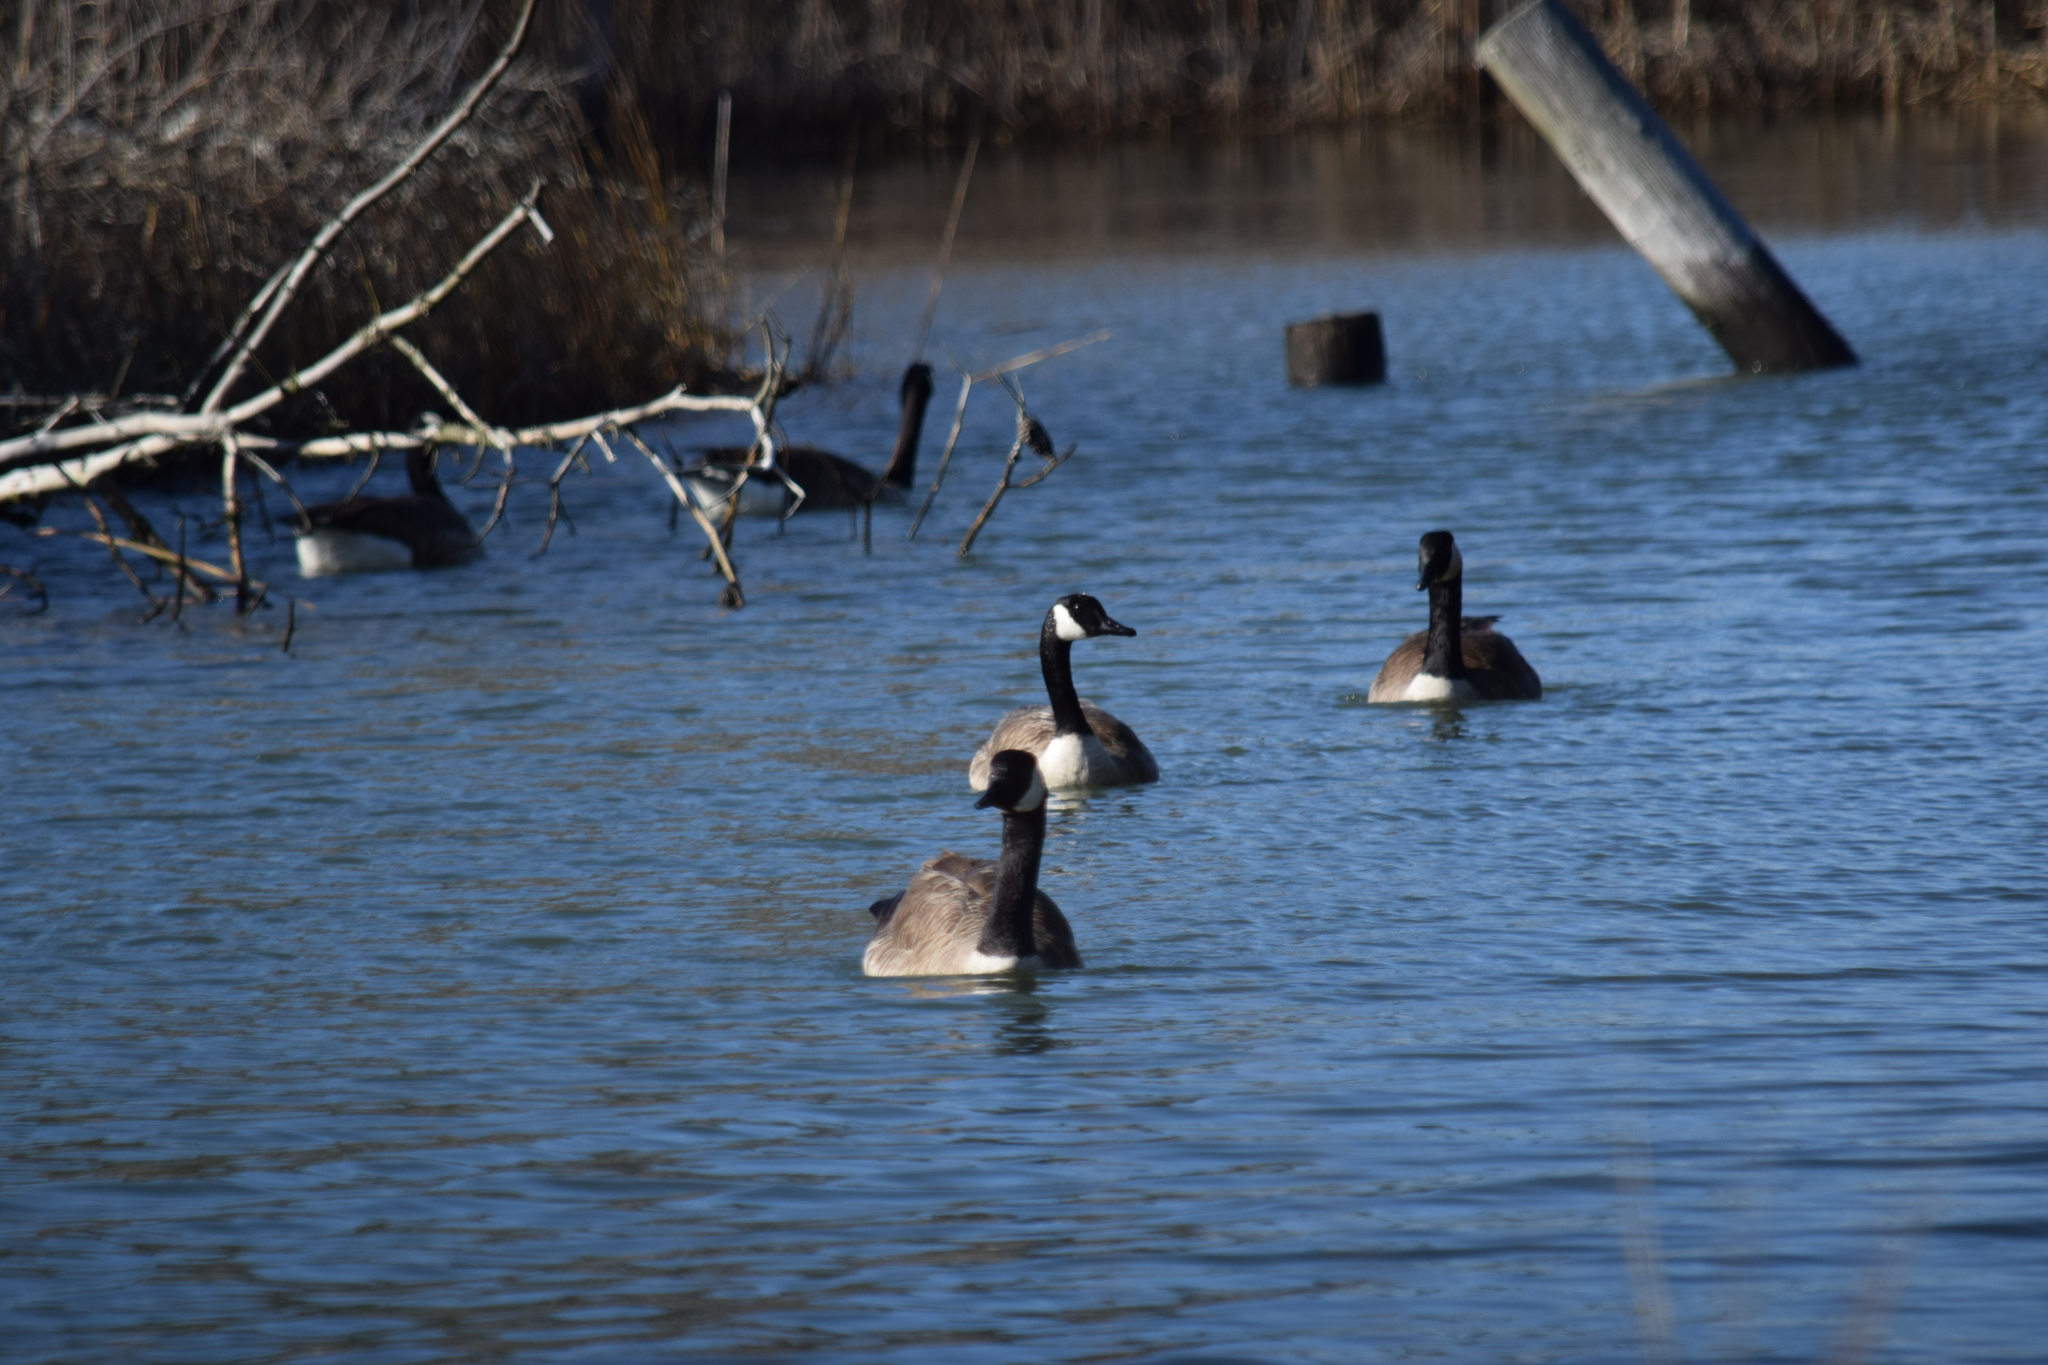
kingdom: Animalia
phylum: Chordata
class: Aves
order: Anseriformes
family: Anatidae
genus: Branta
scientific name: Branta canadensis
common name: Canada goose
